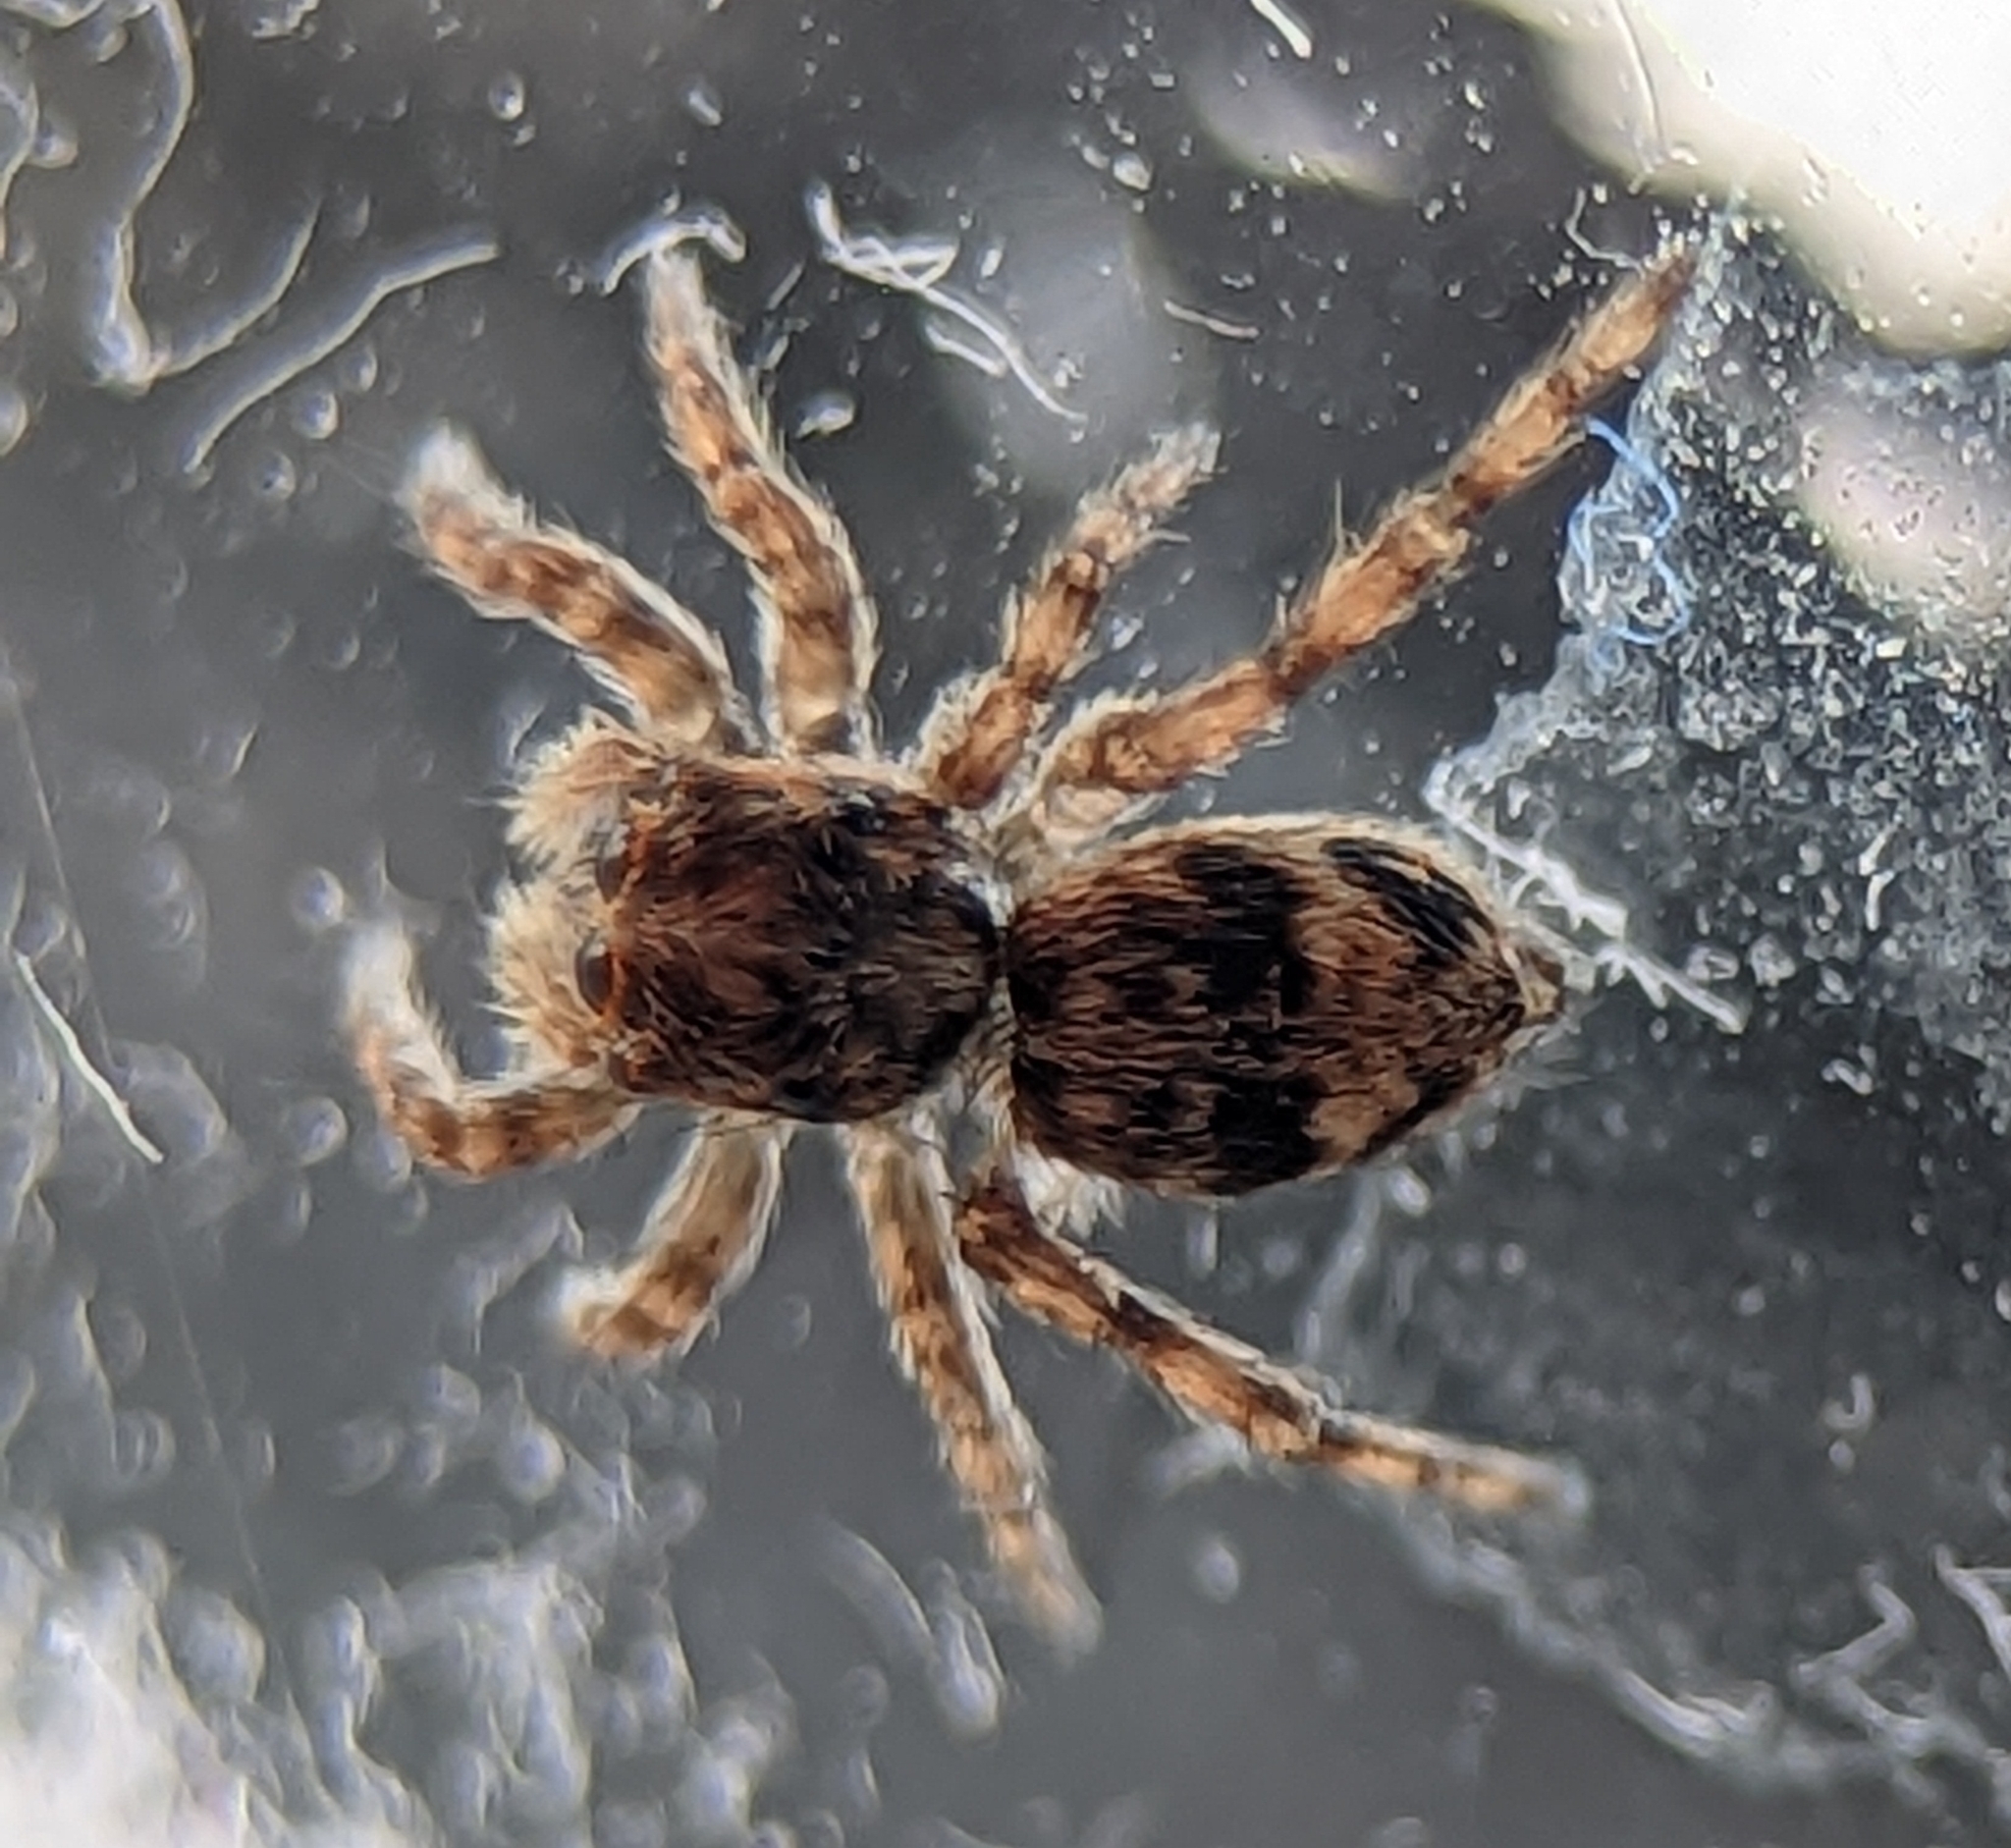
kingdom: Animalia
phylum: Arthropoda
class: Arachnida
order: Araneae
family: Salticidae
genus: Attulus
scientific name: Attulus fasciger
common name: Asiatic wall jumping spider
